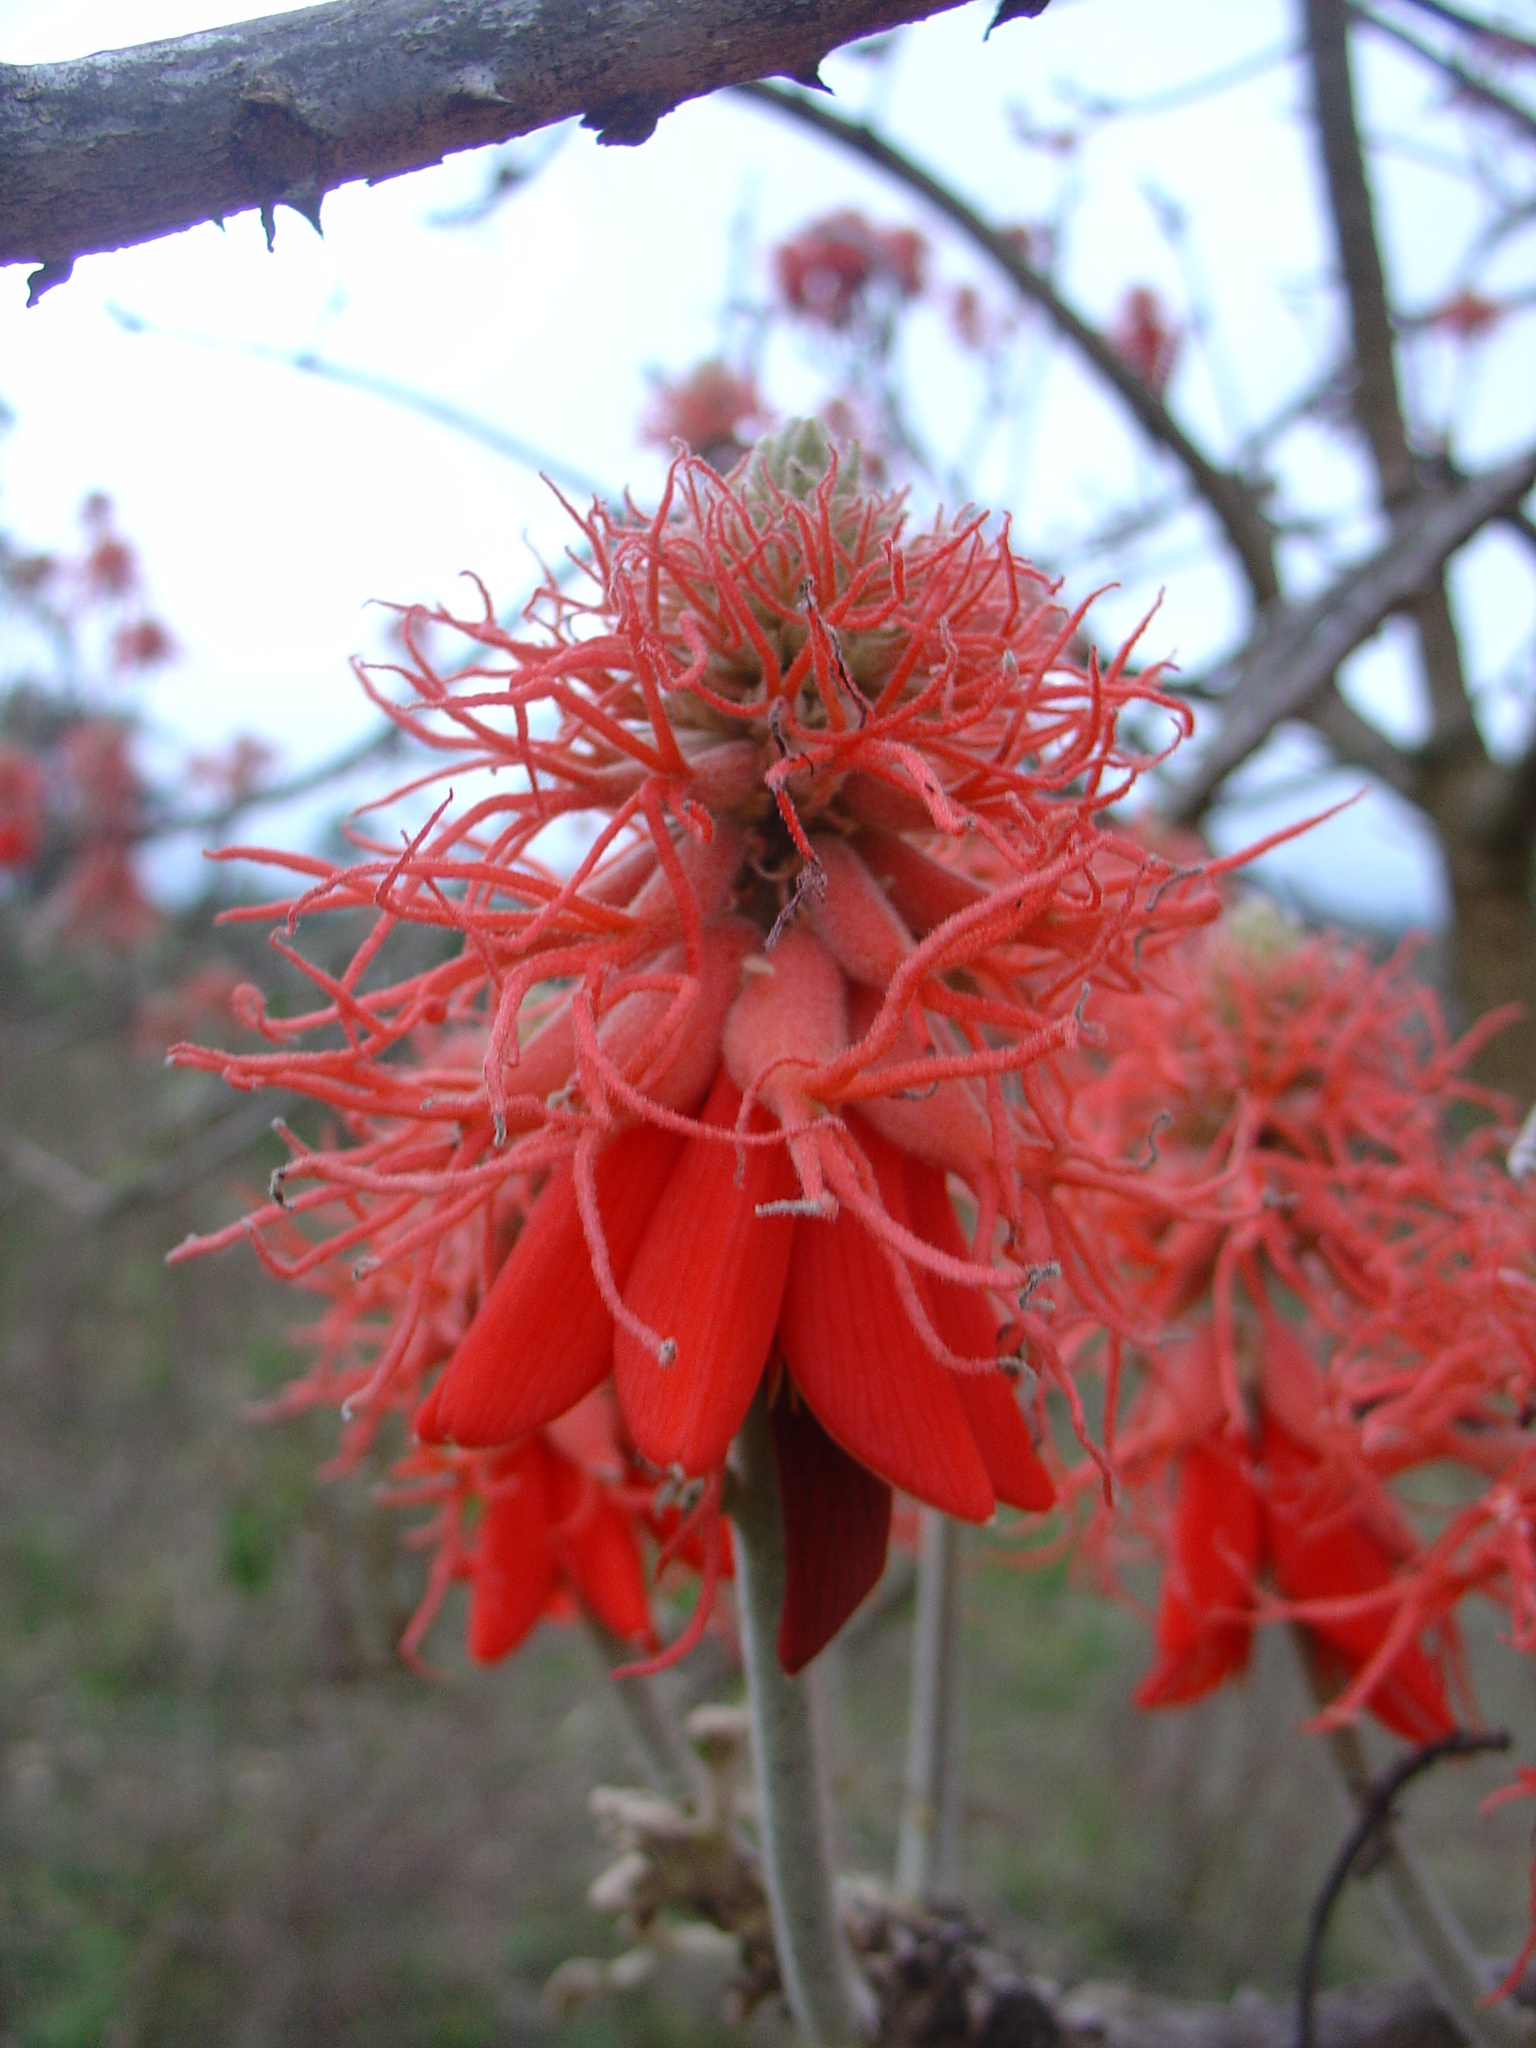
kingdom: Plantae
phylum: Tracheophyta
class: Magnoliopsida
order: Fabales
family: Fabaceae
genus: Erythrina
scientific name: Erythrina abyssinica
